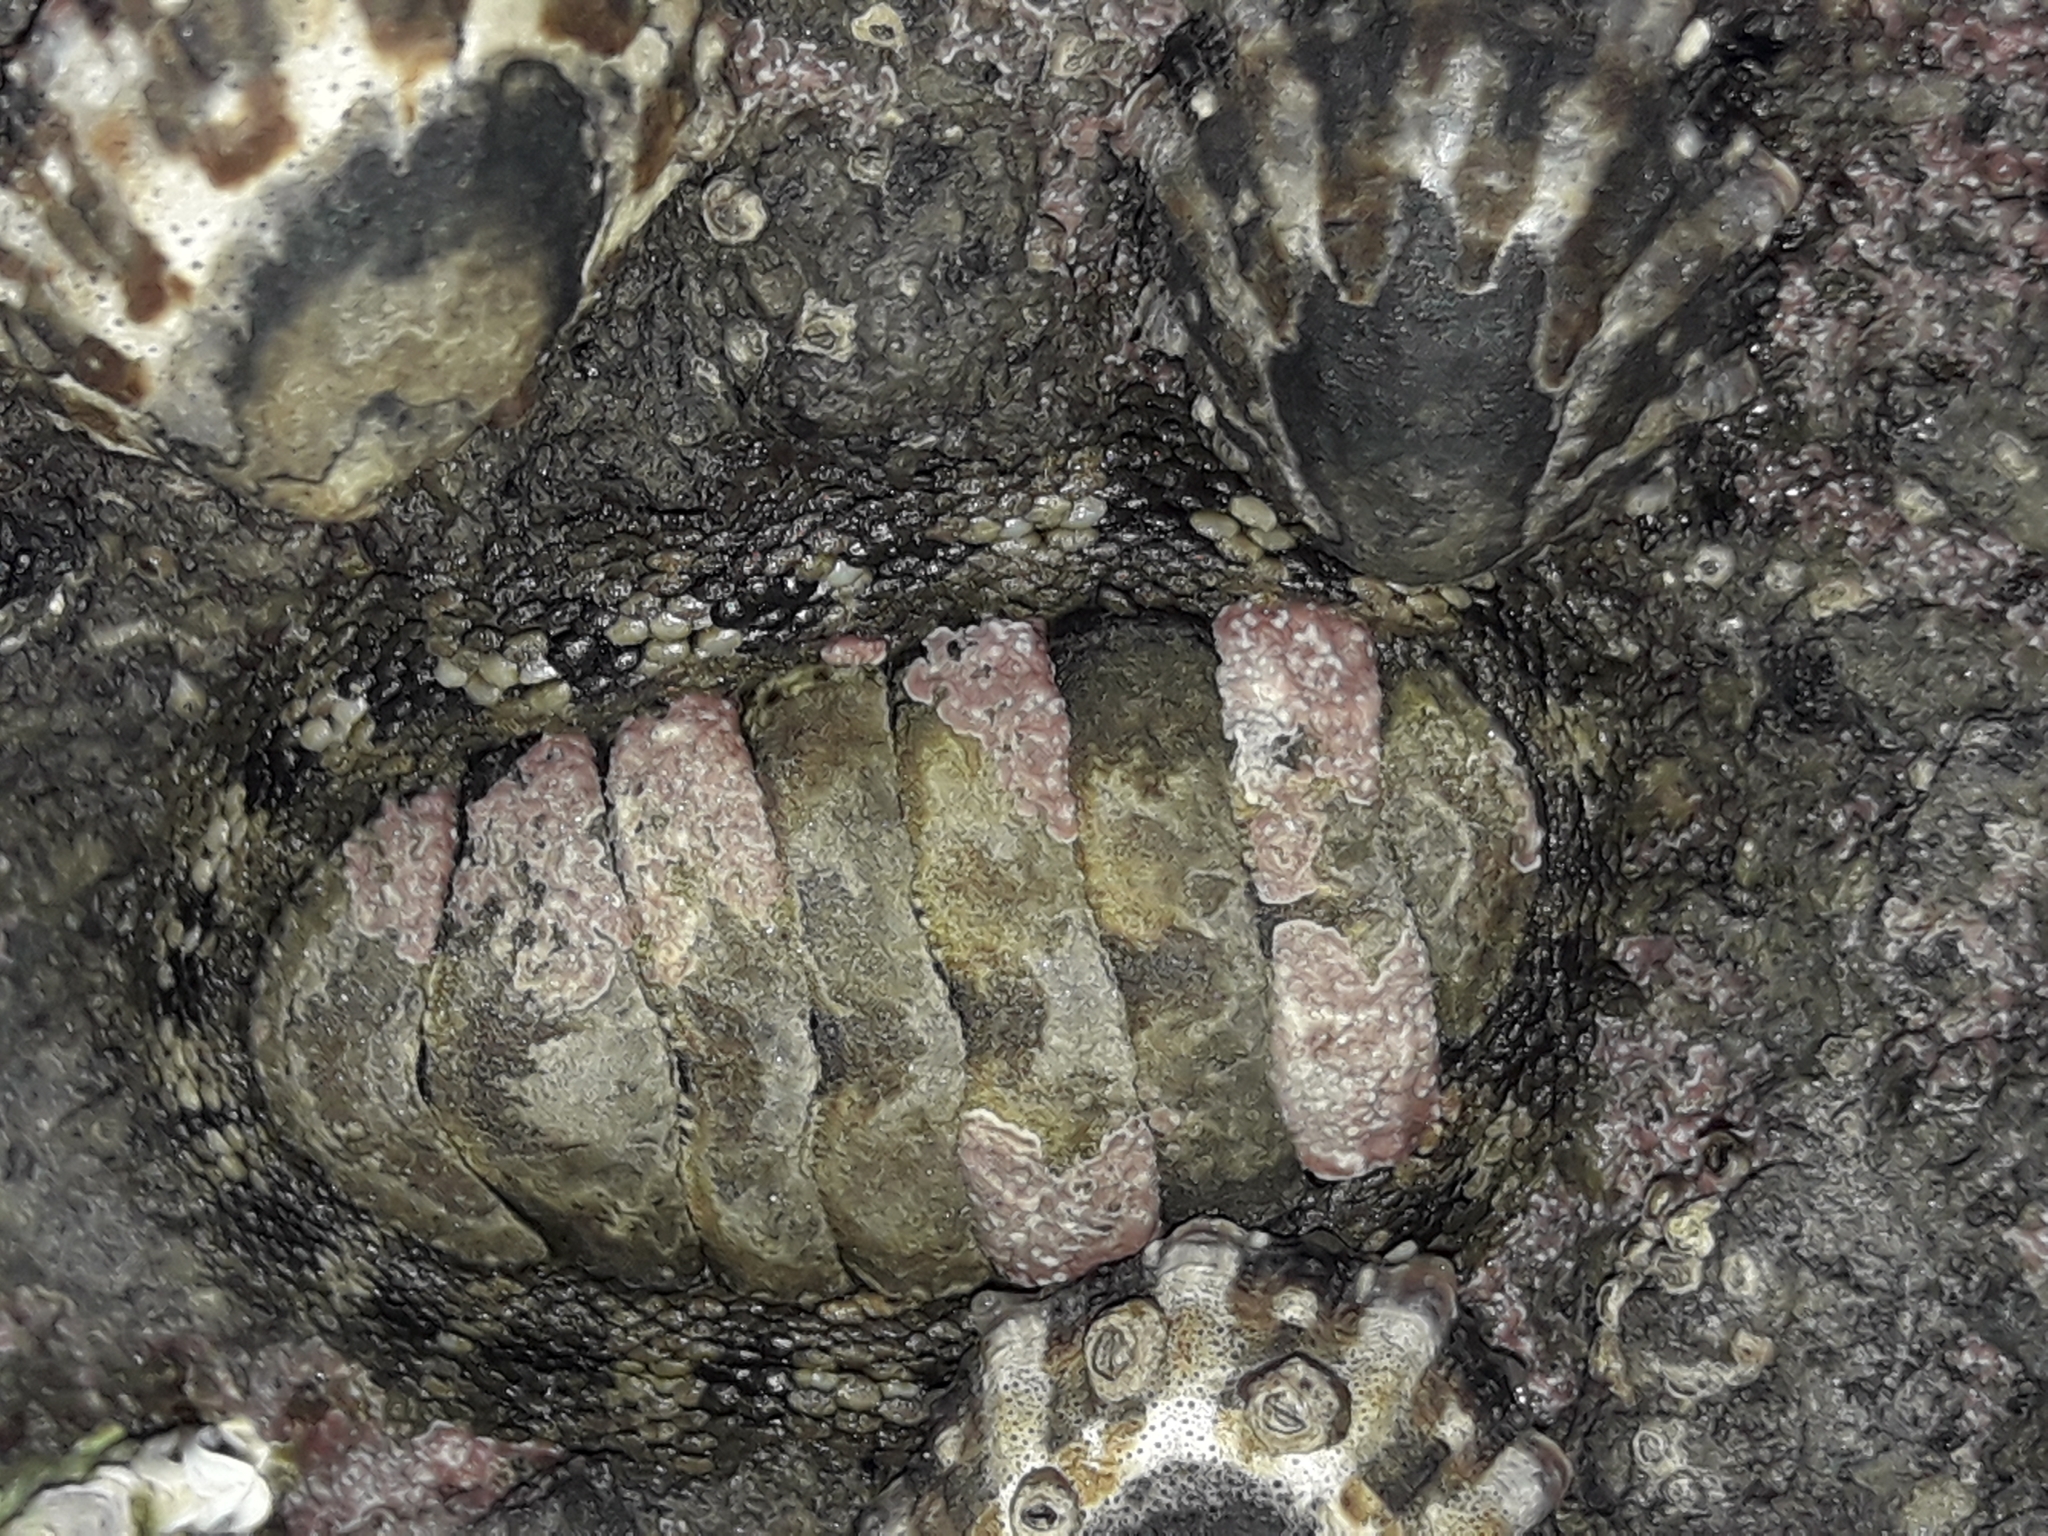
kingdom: Animalia
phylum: Mollusca
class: Polyplacophora
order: Chitonida
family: Chitonidae
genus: Sypharochiton
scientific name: Sypharochiton pelliserpentis
